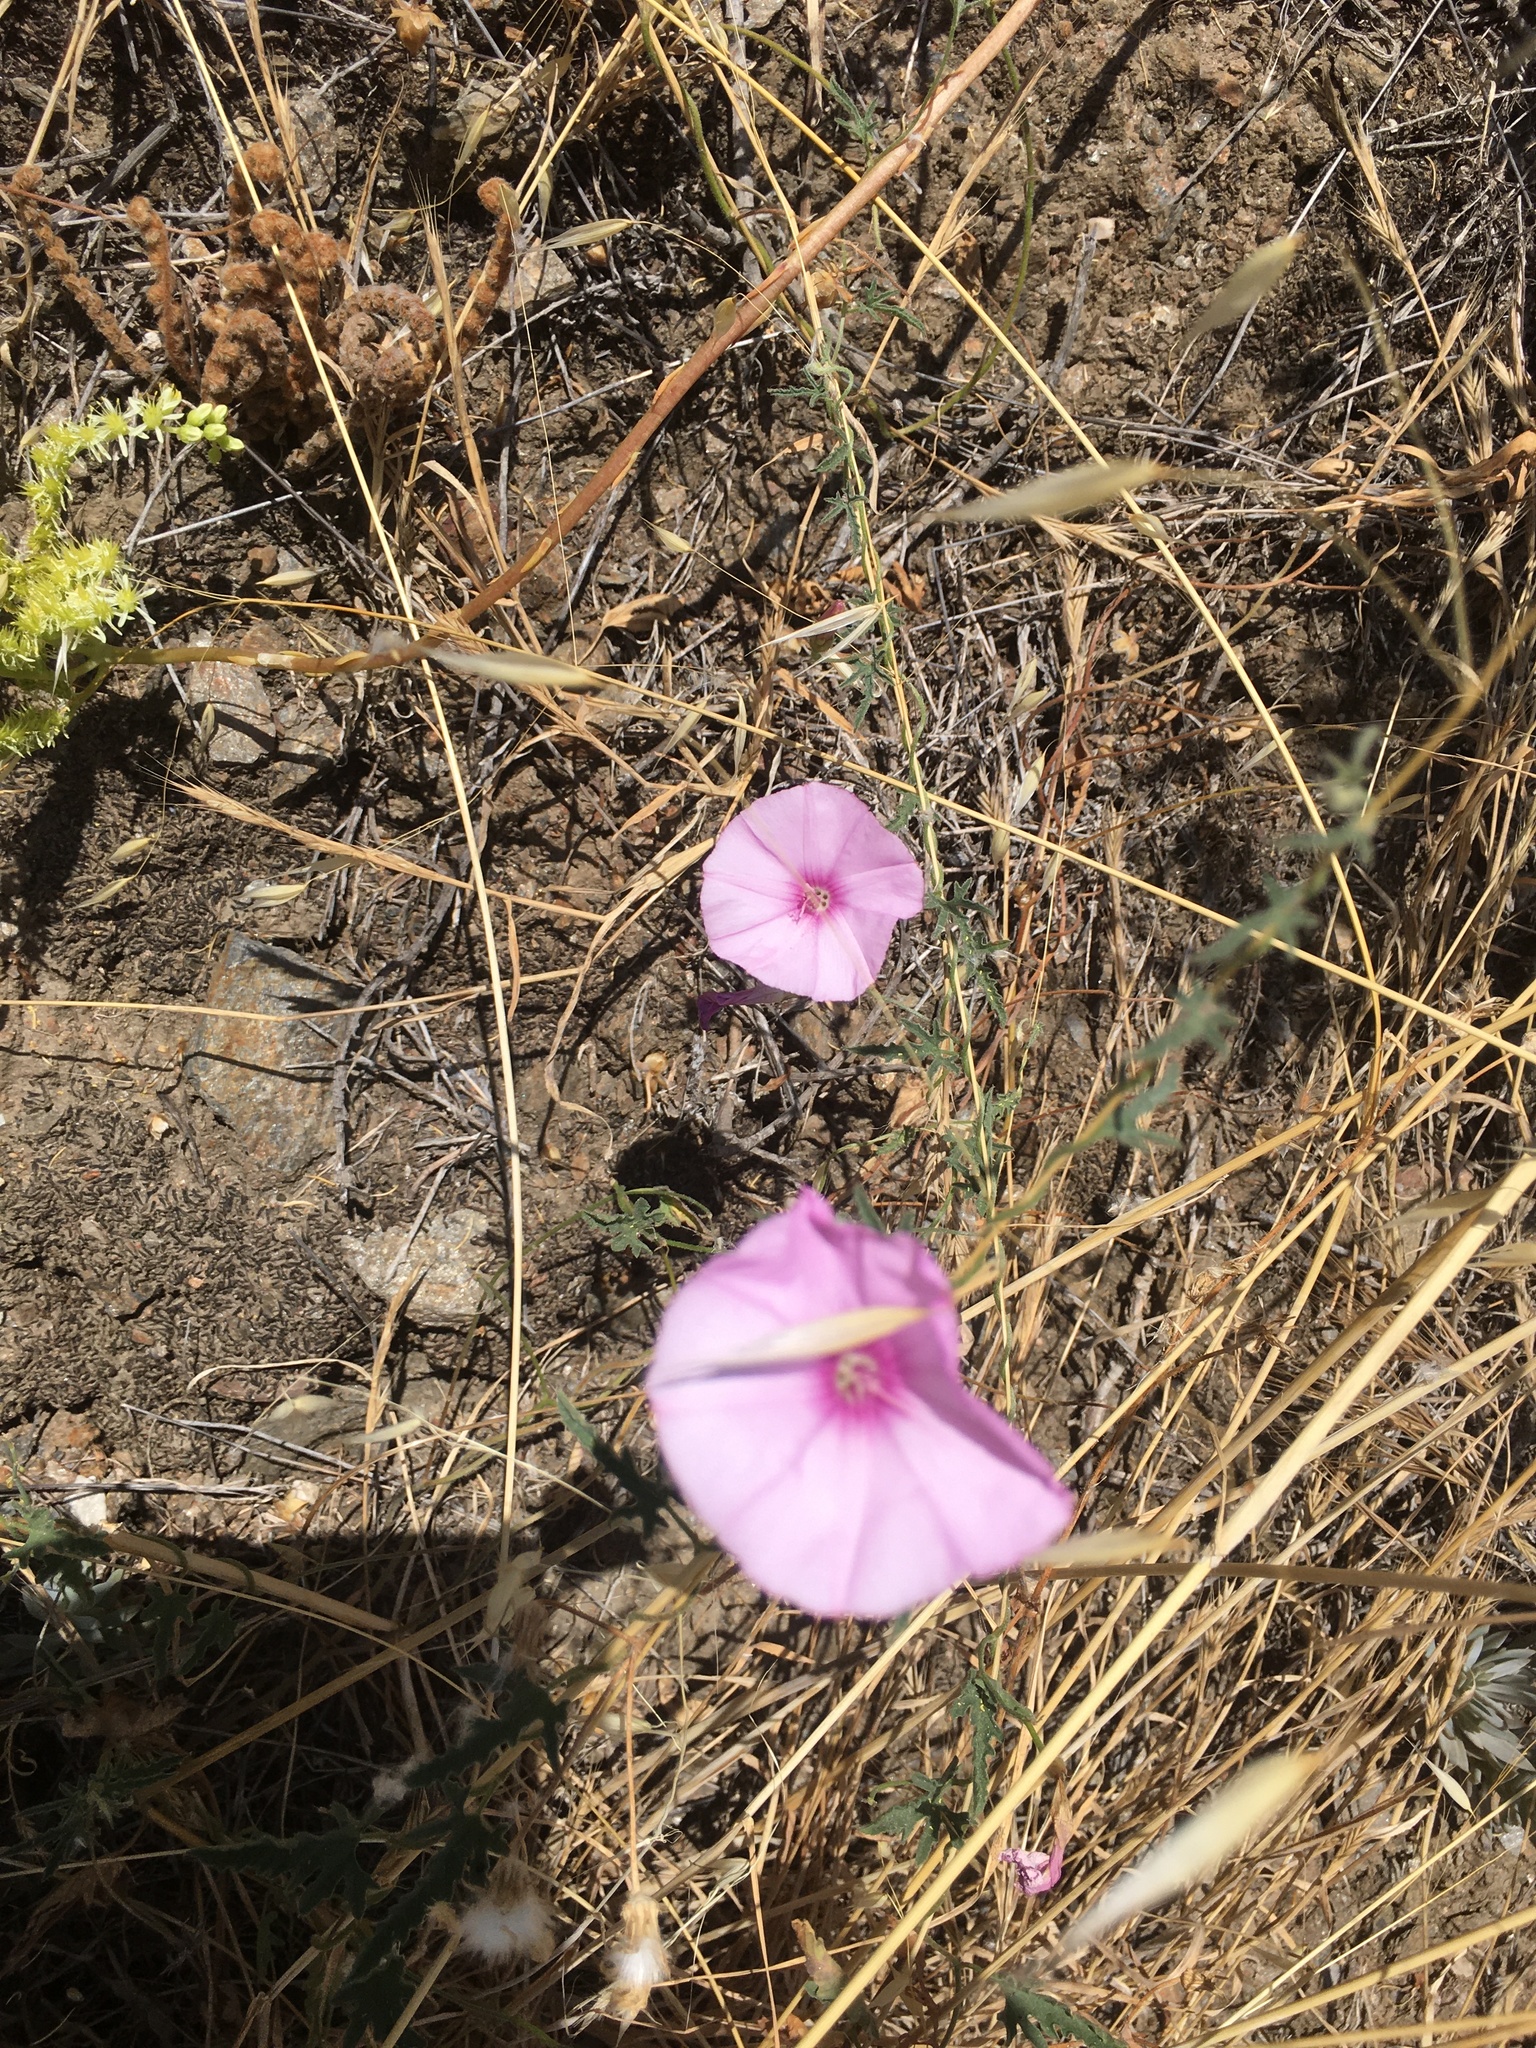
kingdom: Plantae
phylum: Tracheophyta
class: Magnoliopsida
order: Solanales
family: Convolvulaceae
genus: Convolvulus
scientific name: Convolvulus althaeoides
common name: Mallow bindweed
